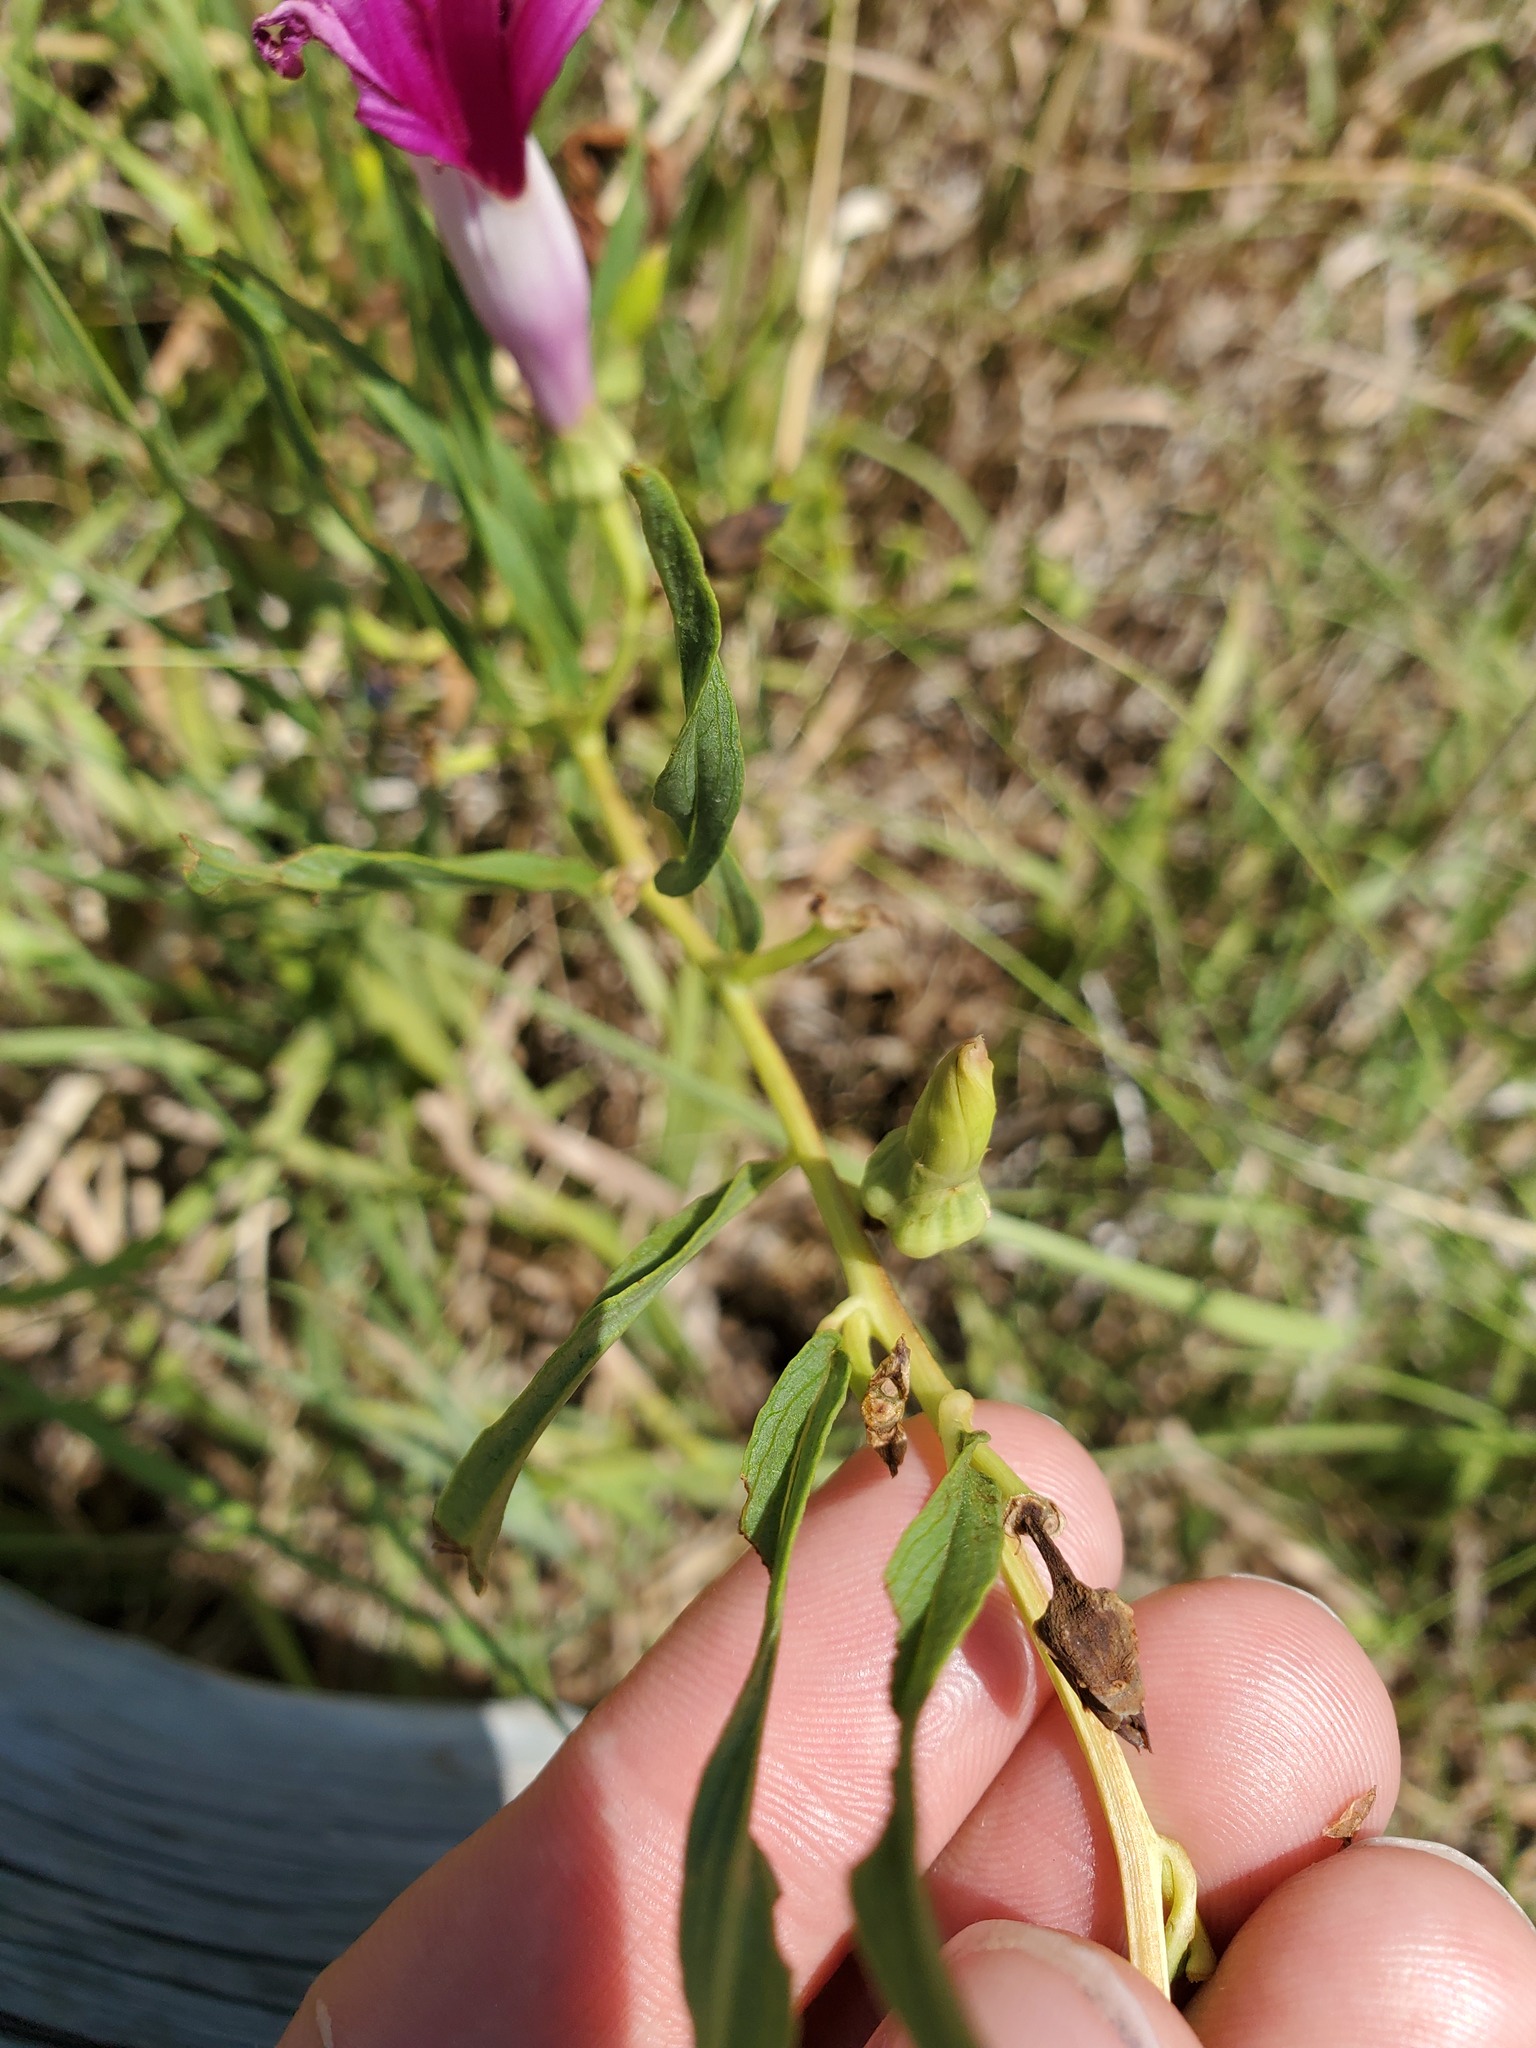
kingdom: Plantae
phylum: Tracheophyta
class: Magnoliopsida
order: Solanales
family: Convolvulaceae
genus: Ipomoea
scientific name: Ipomoea leptophylla
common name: Bush moonflower
